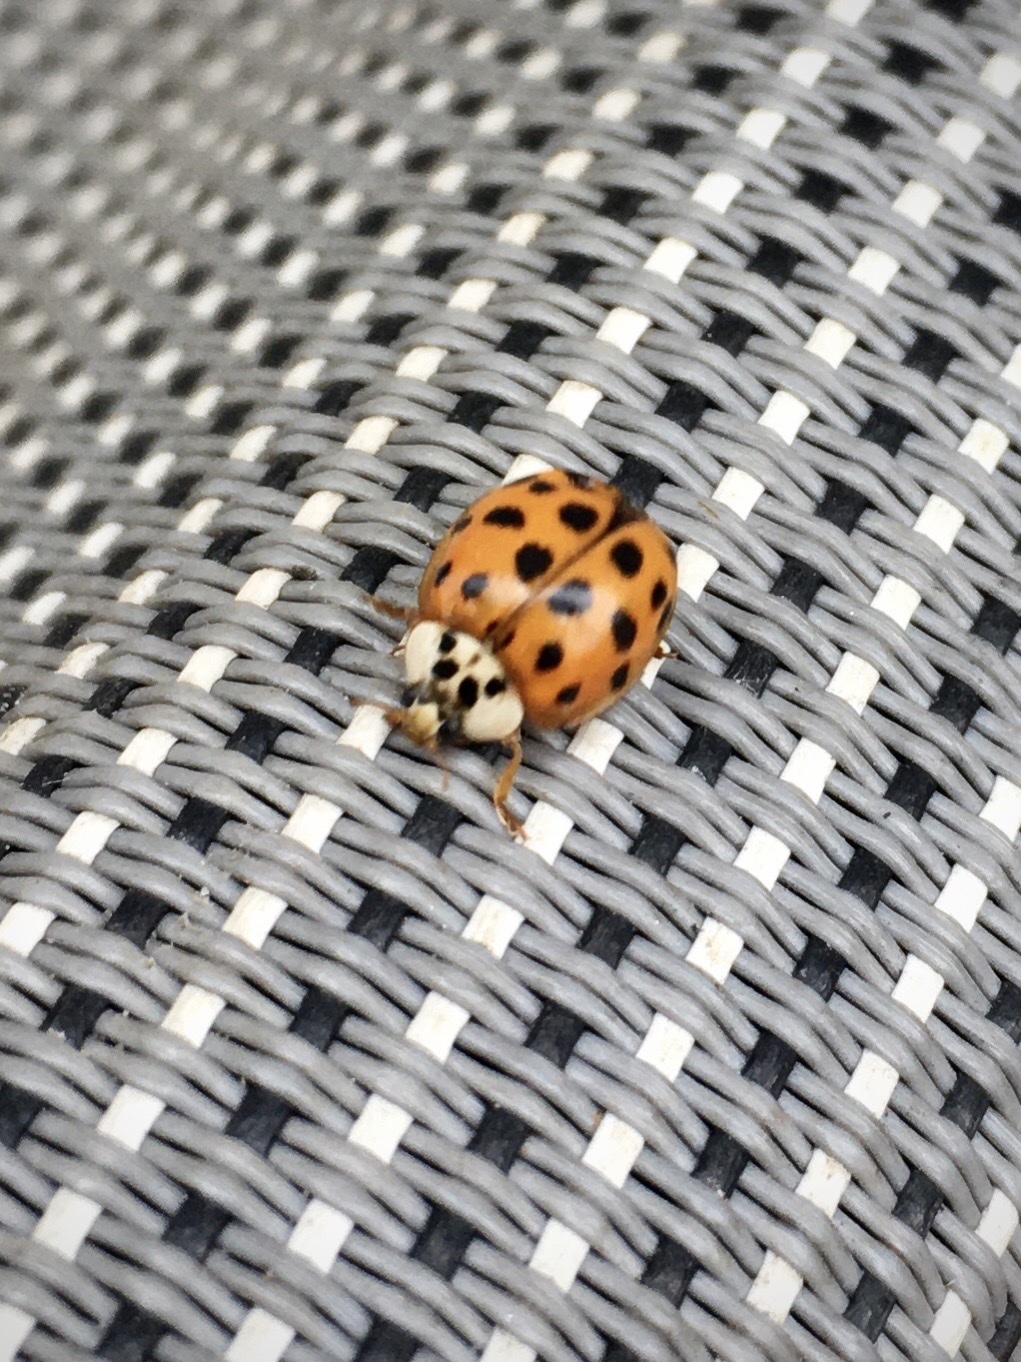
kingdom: Animalia
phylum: Arthropoda
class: Insecta
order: Coleoptera
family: Coccinellidae
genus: Harmonia
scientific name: Harmonia axyridis
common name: Harlequin ladybird
